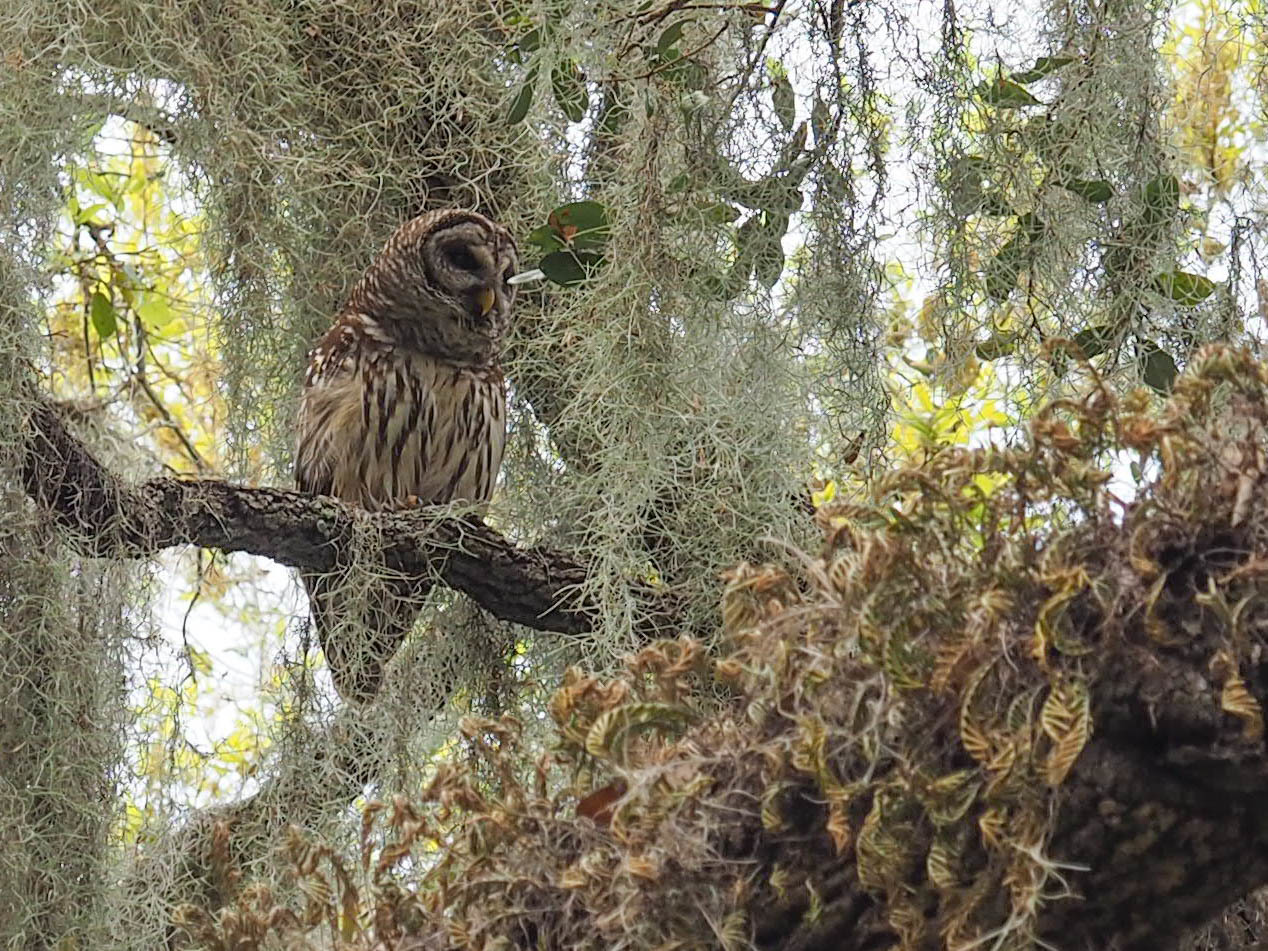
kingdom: Animalia
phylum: Chordata
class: Aves
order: Strigiformes
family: Strigidae
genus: Strix
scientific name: Strix varia
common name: Barred owl
